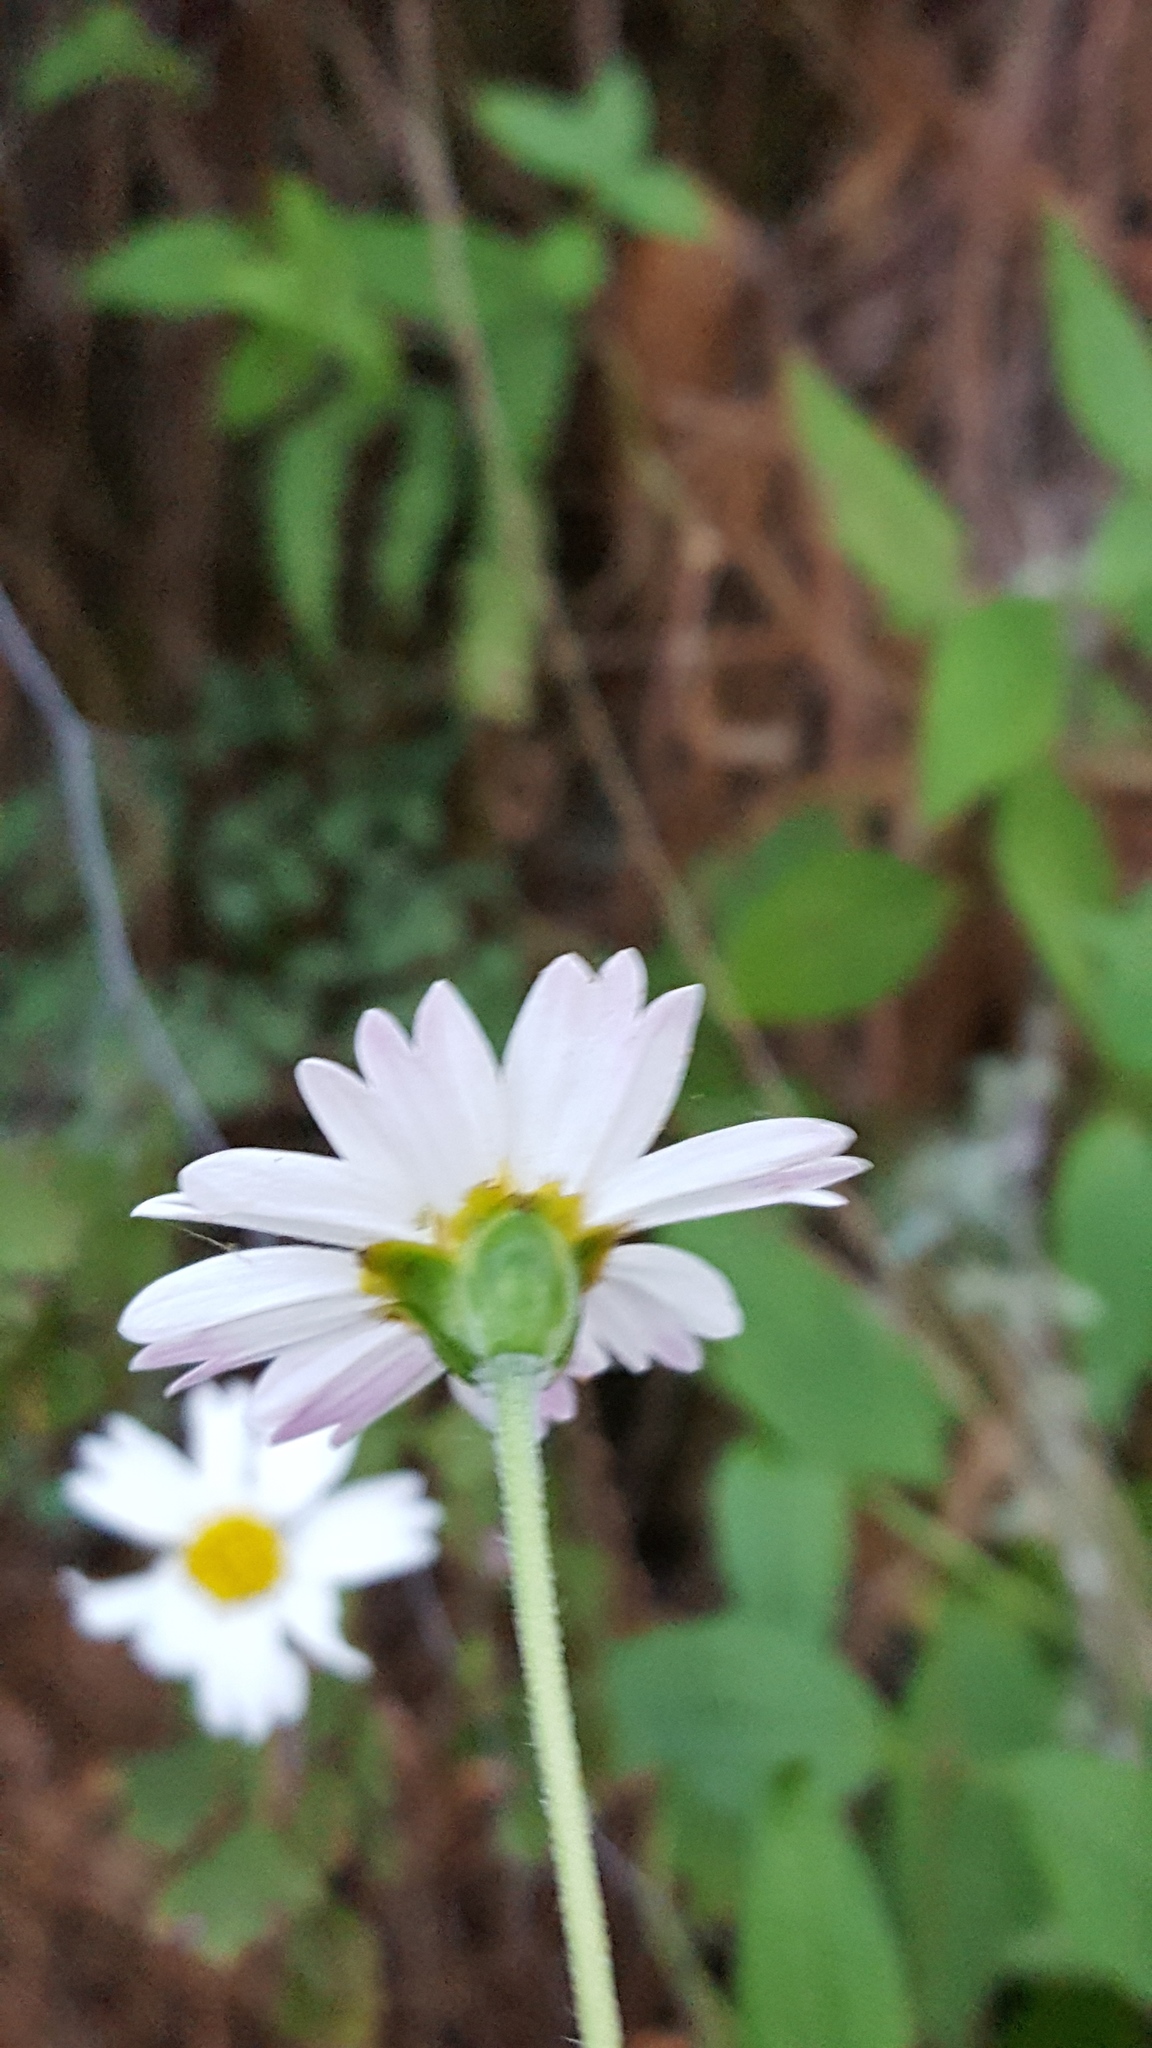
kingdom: Plantae
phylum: Tracheophyta
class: Magnoliopsida
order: Asterales
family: Asteraceae
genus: Sabazia
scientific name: Sabazia multiradiata
